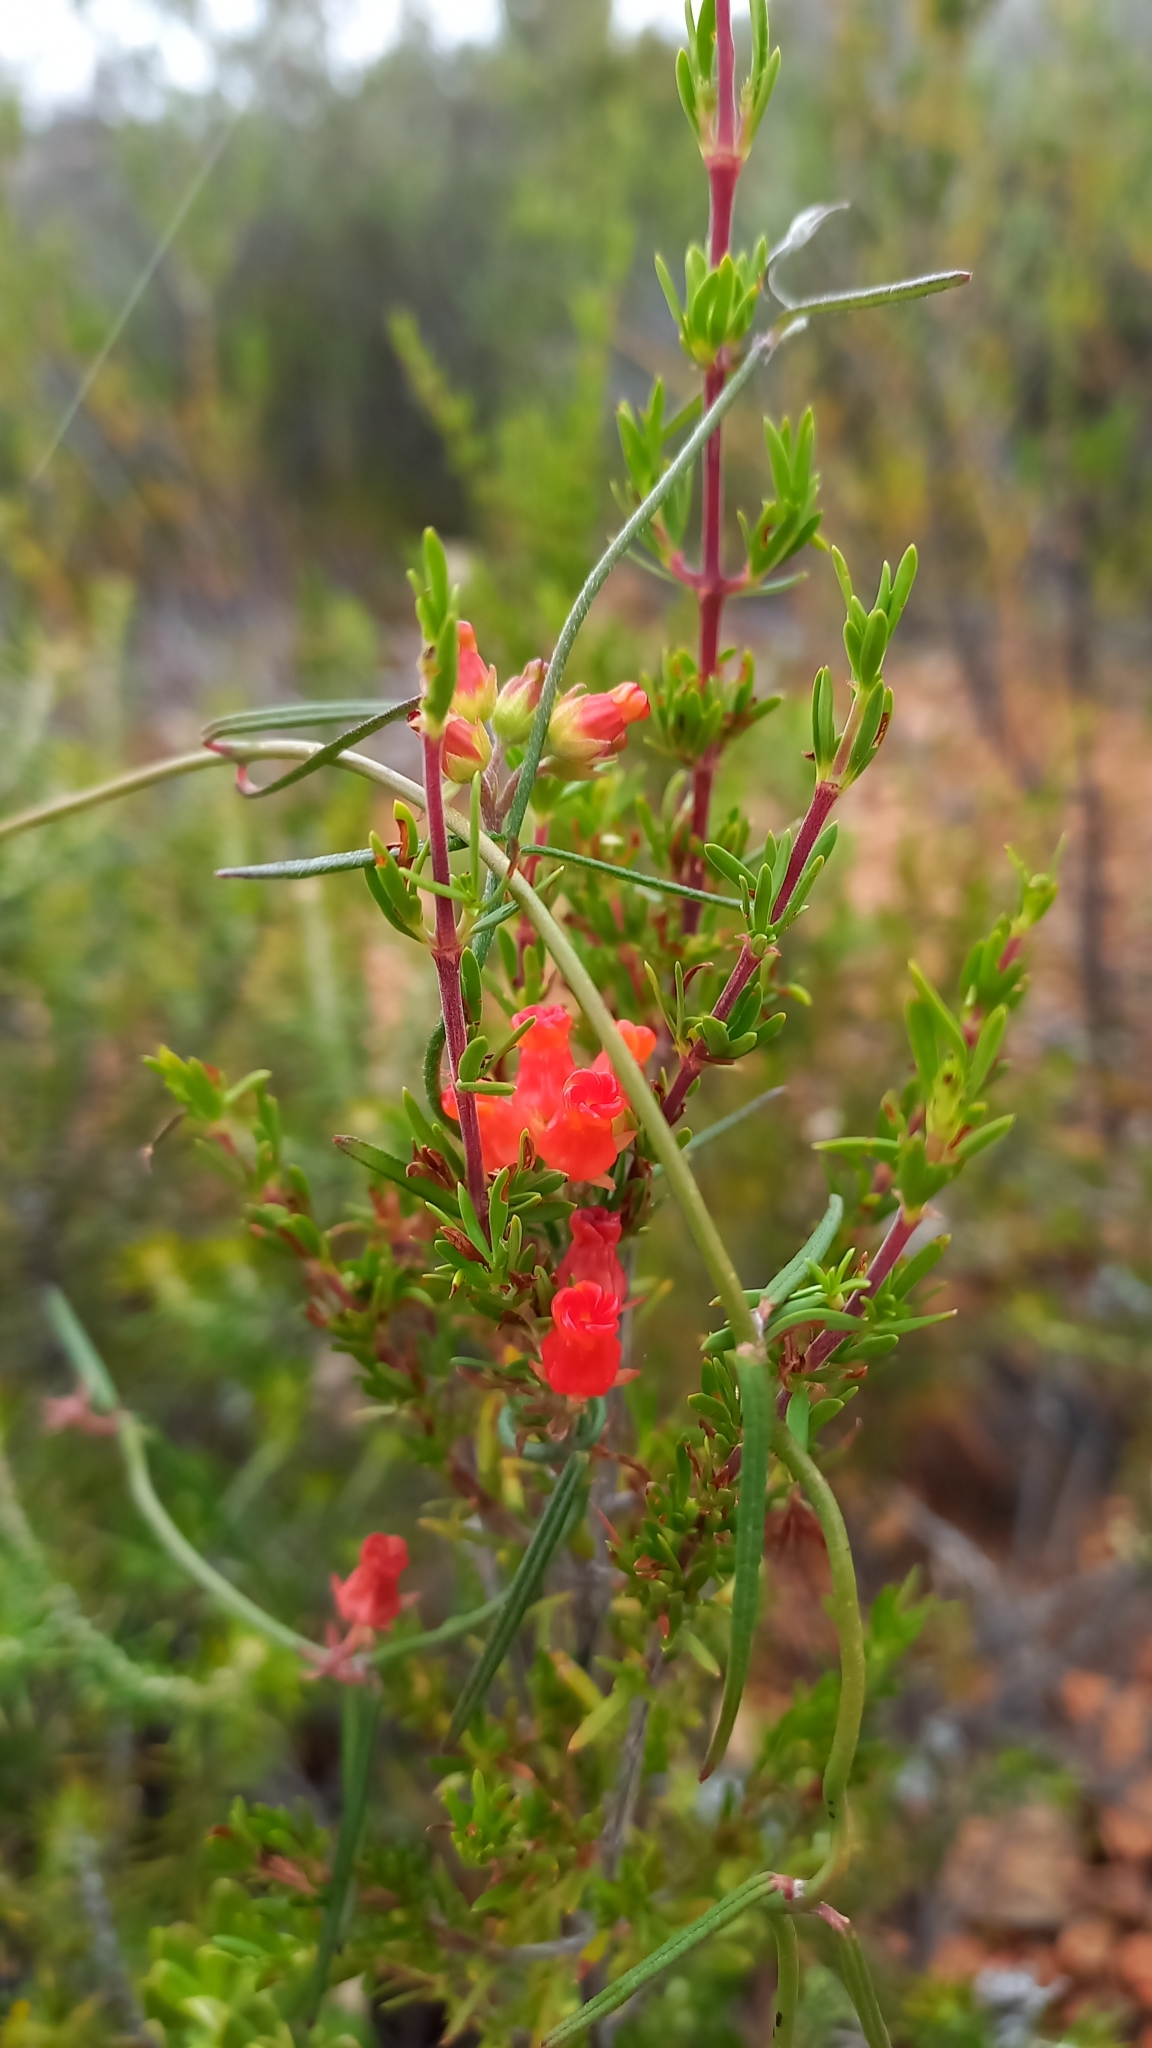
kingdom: Plantae
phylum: Tracheophyta
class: Magnoliopsida
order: Gentianales
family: Apocynaceae
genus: Microloma
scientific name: Microloma tenuifolium
